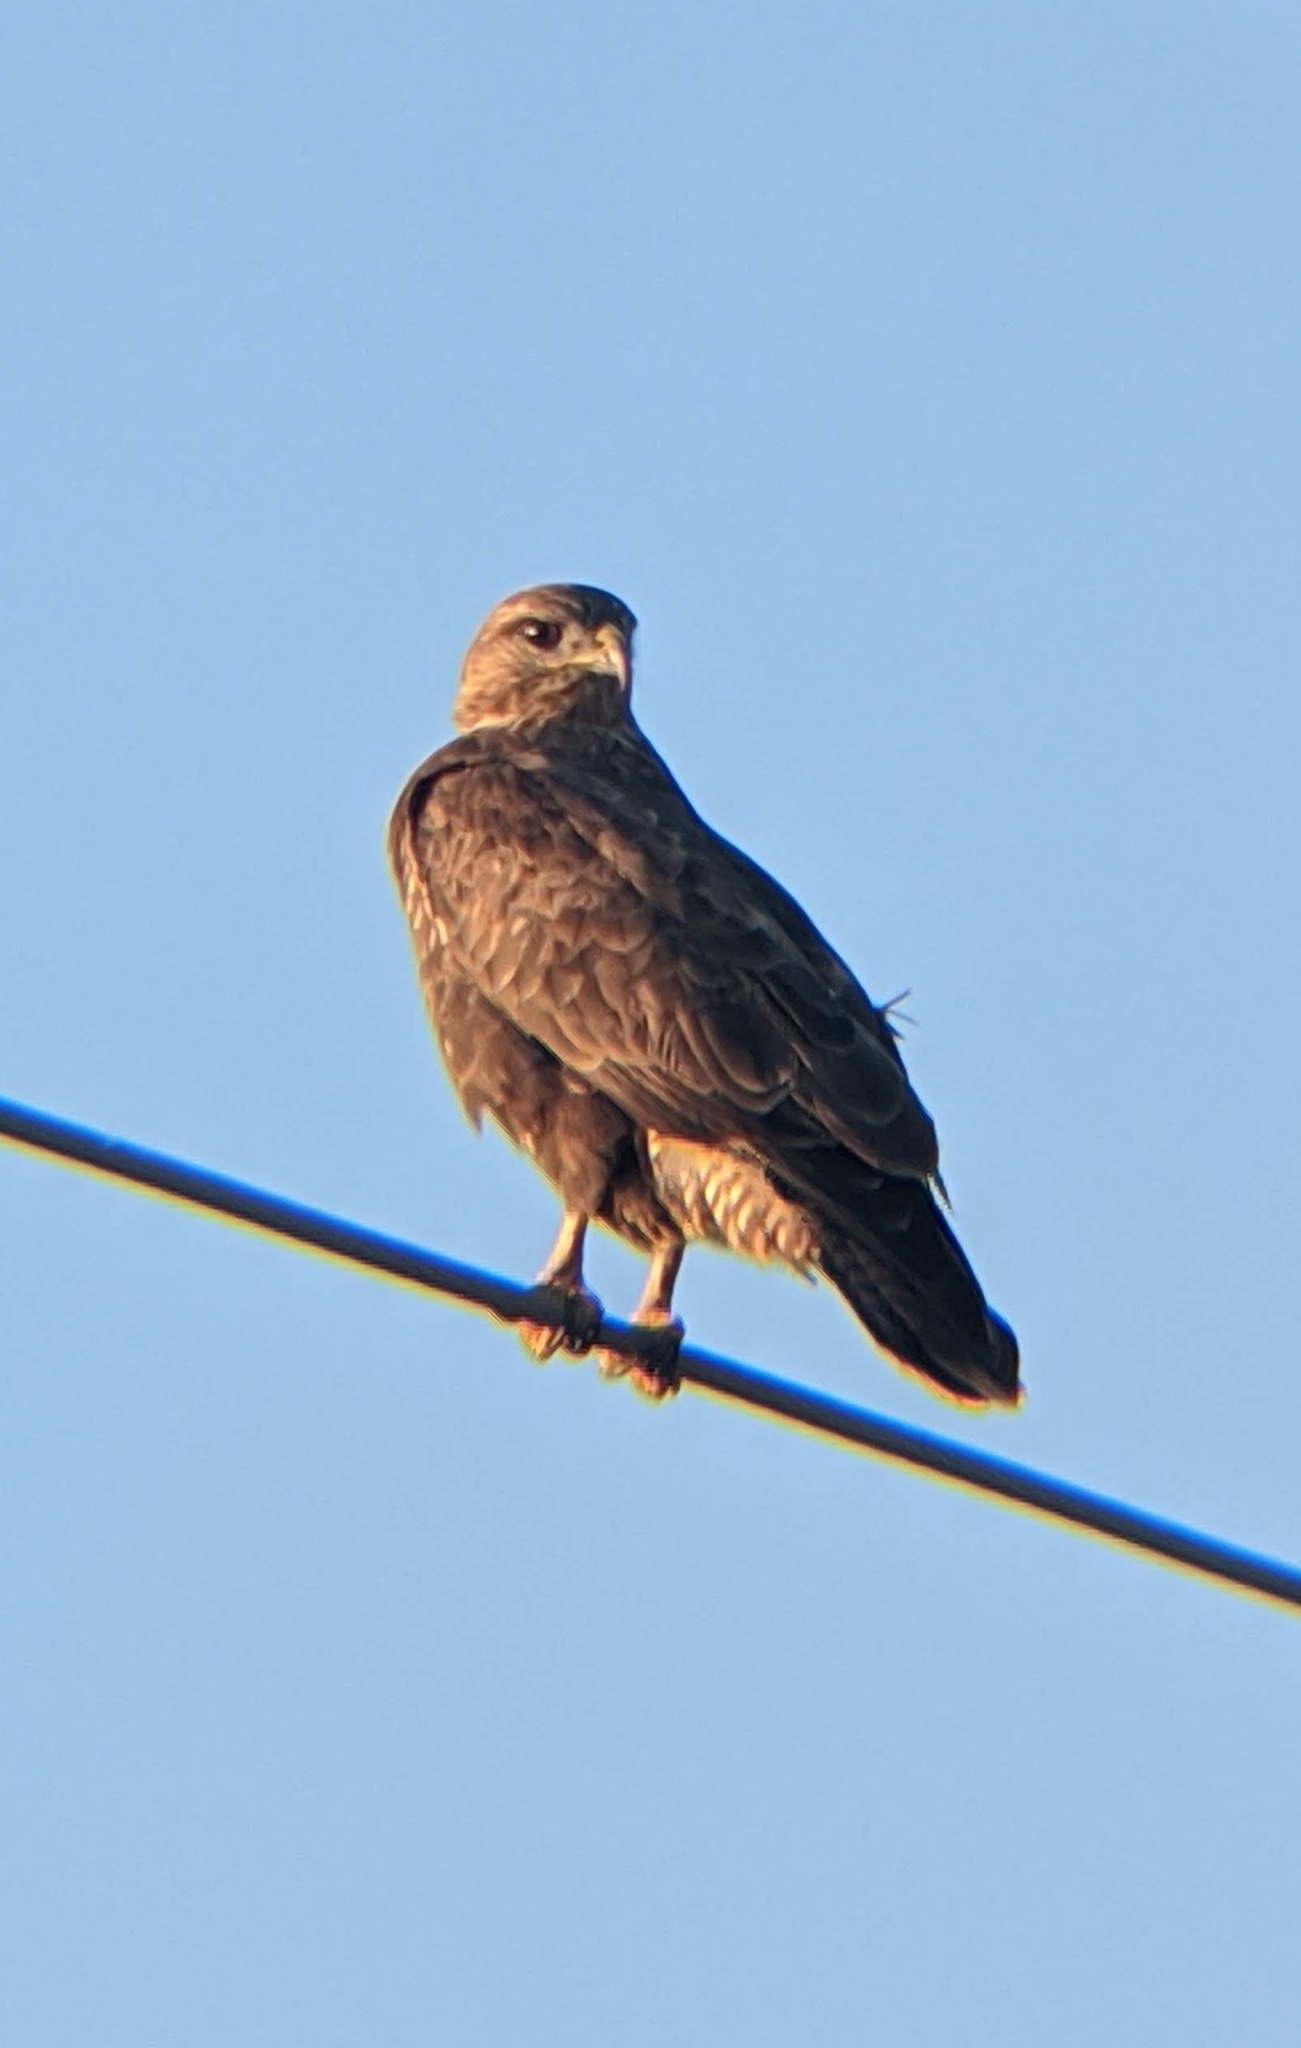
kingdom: Animalia
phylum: Chordata
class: Aves
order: Accipitriformes
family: Accipitridae
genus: Buteo
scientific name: Buteo buteo
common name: Common buzzard
